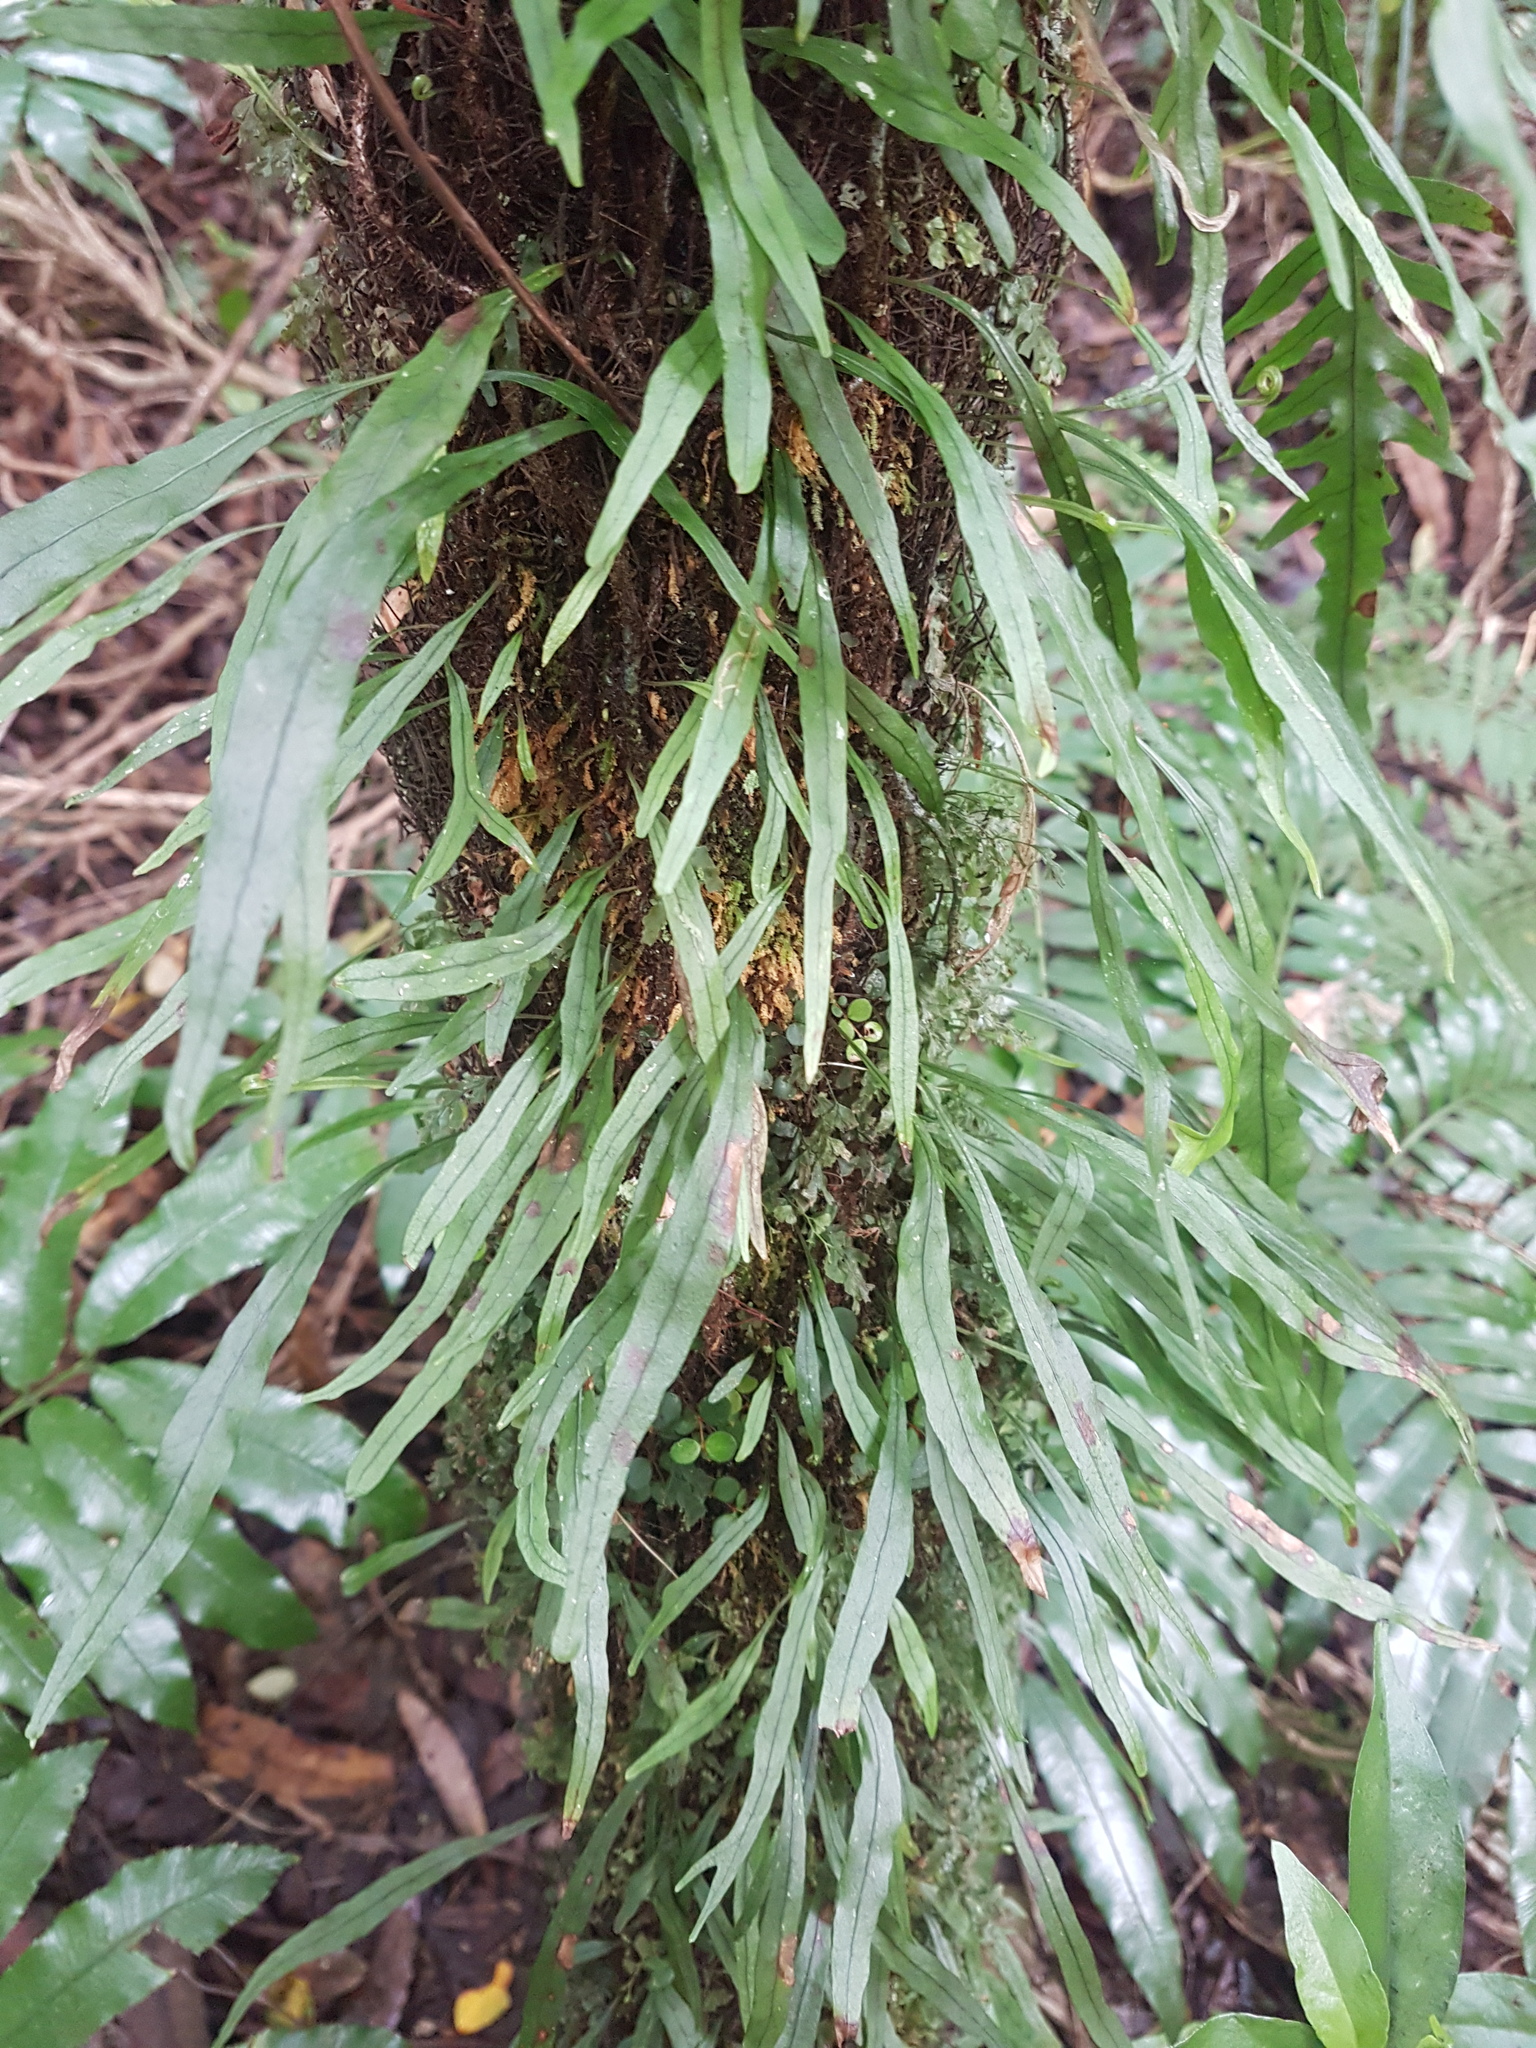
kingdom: Plantae
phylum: Tracheophyta
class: Polypodiopsida
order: Polypodiales
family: Polypodiaceae
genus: Lecanopteris
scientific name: Lecanopteris scandens
